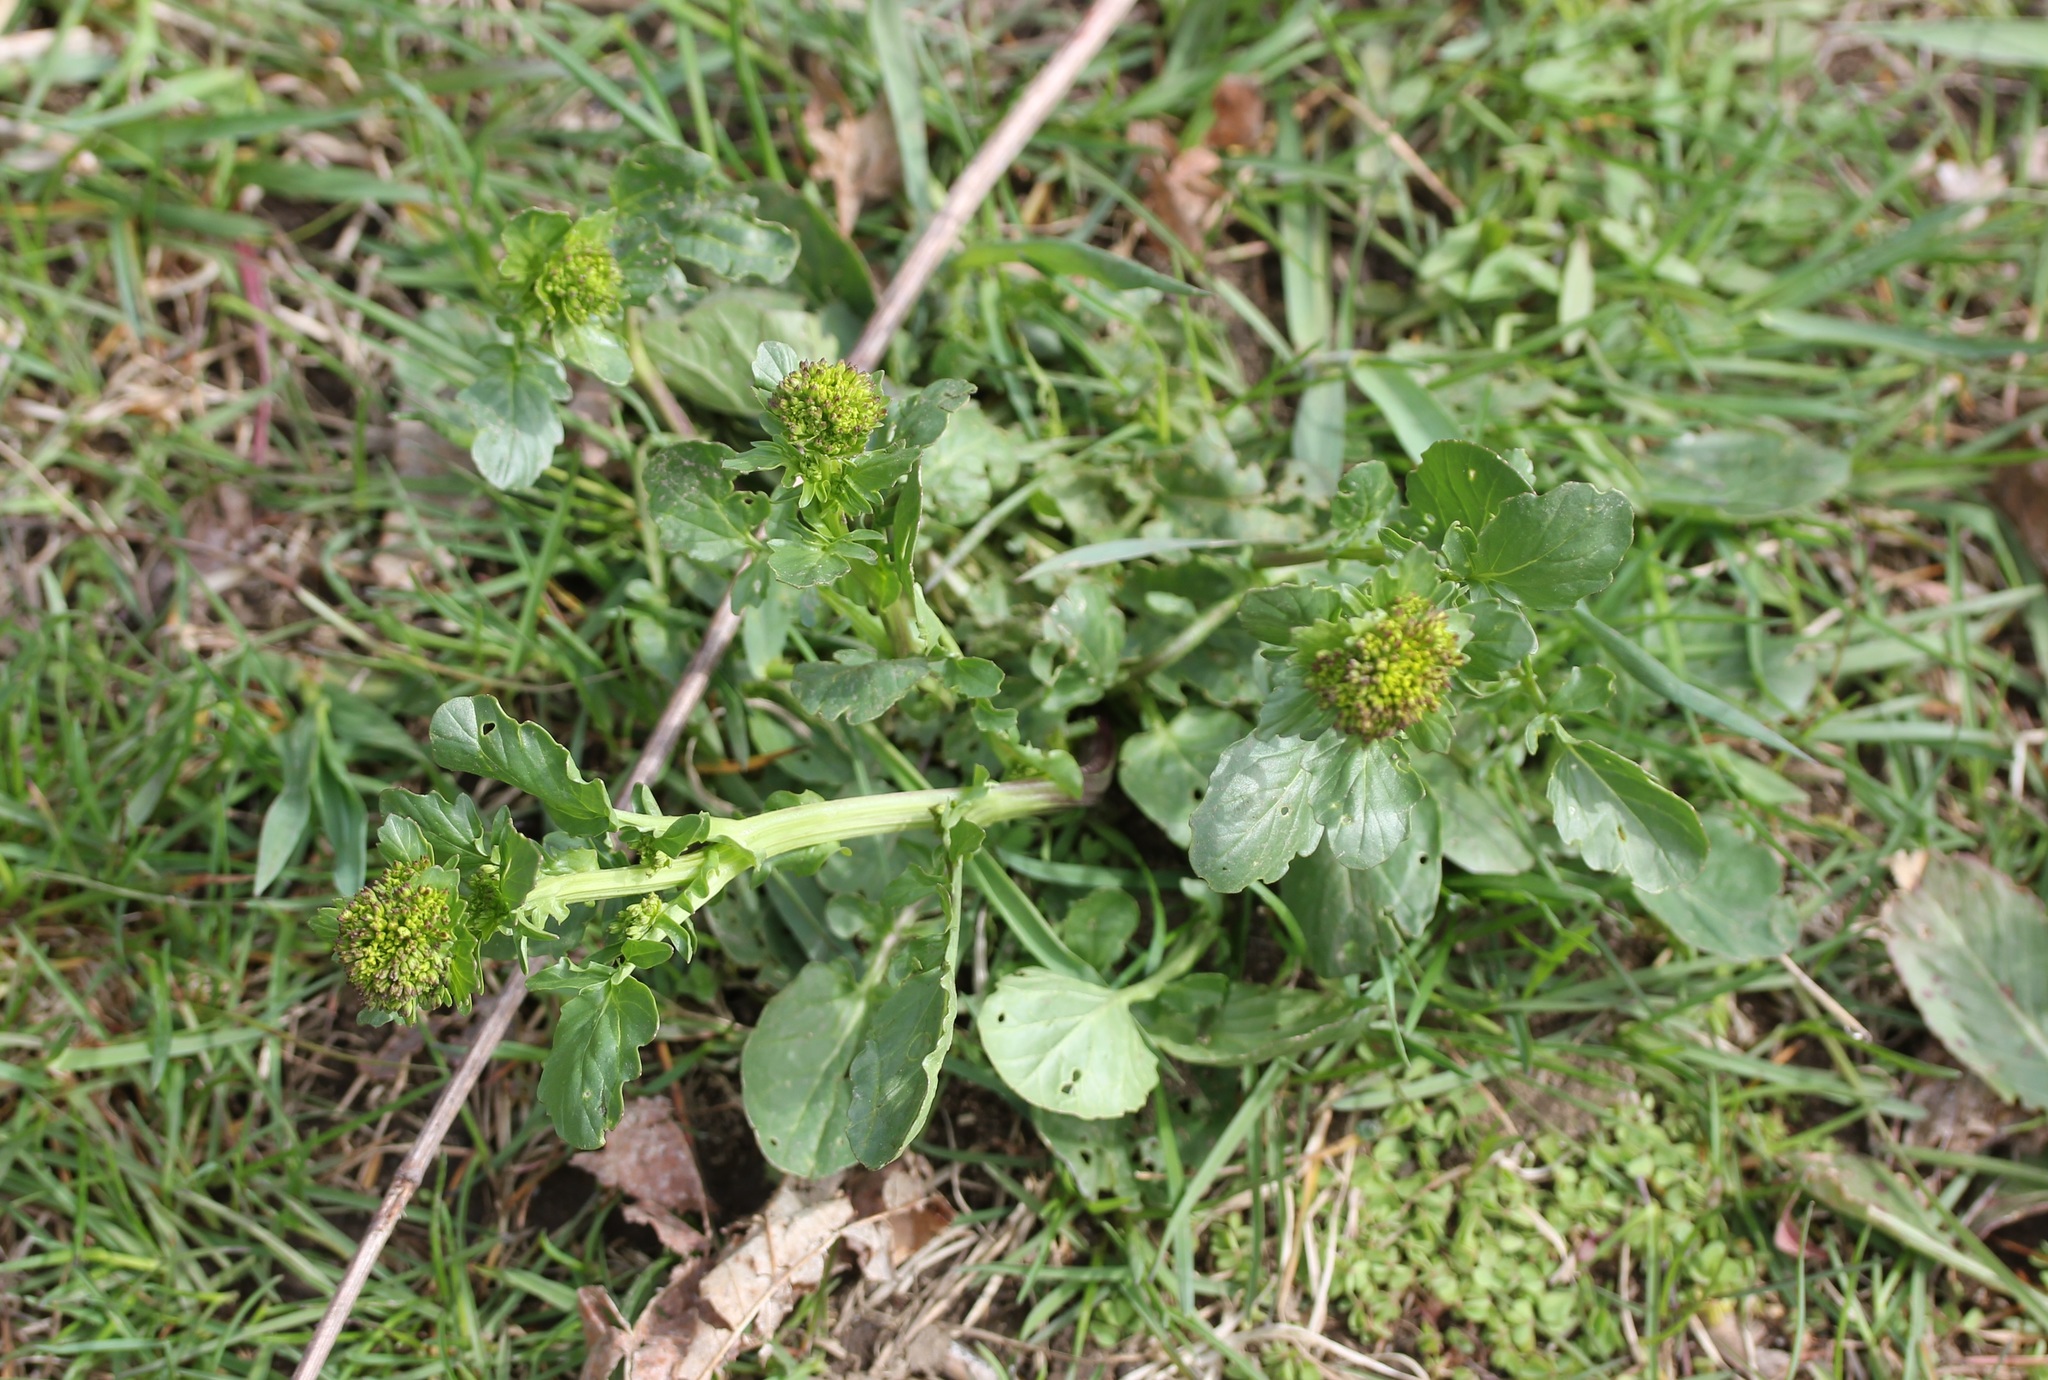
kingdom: Plantae
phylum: Tracheophyta
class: Magnoliopsida
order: Brassicales
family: Brassicaceae
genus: Barbarea
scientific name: Barbarea vulgaris
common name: Cressy-greens
